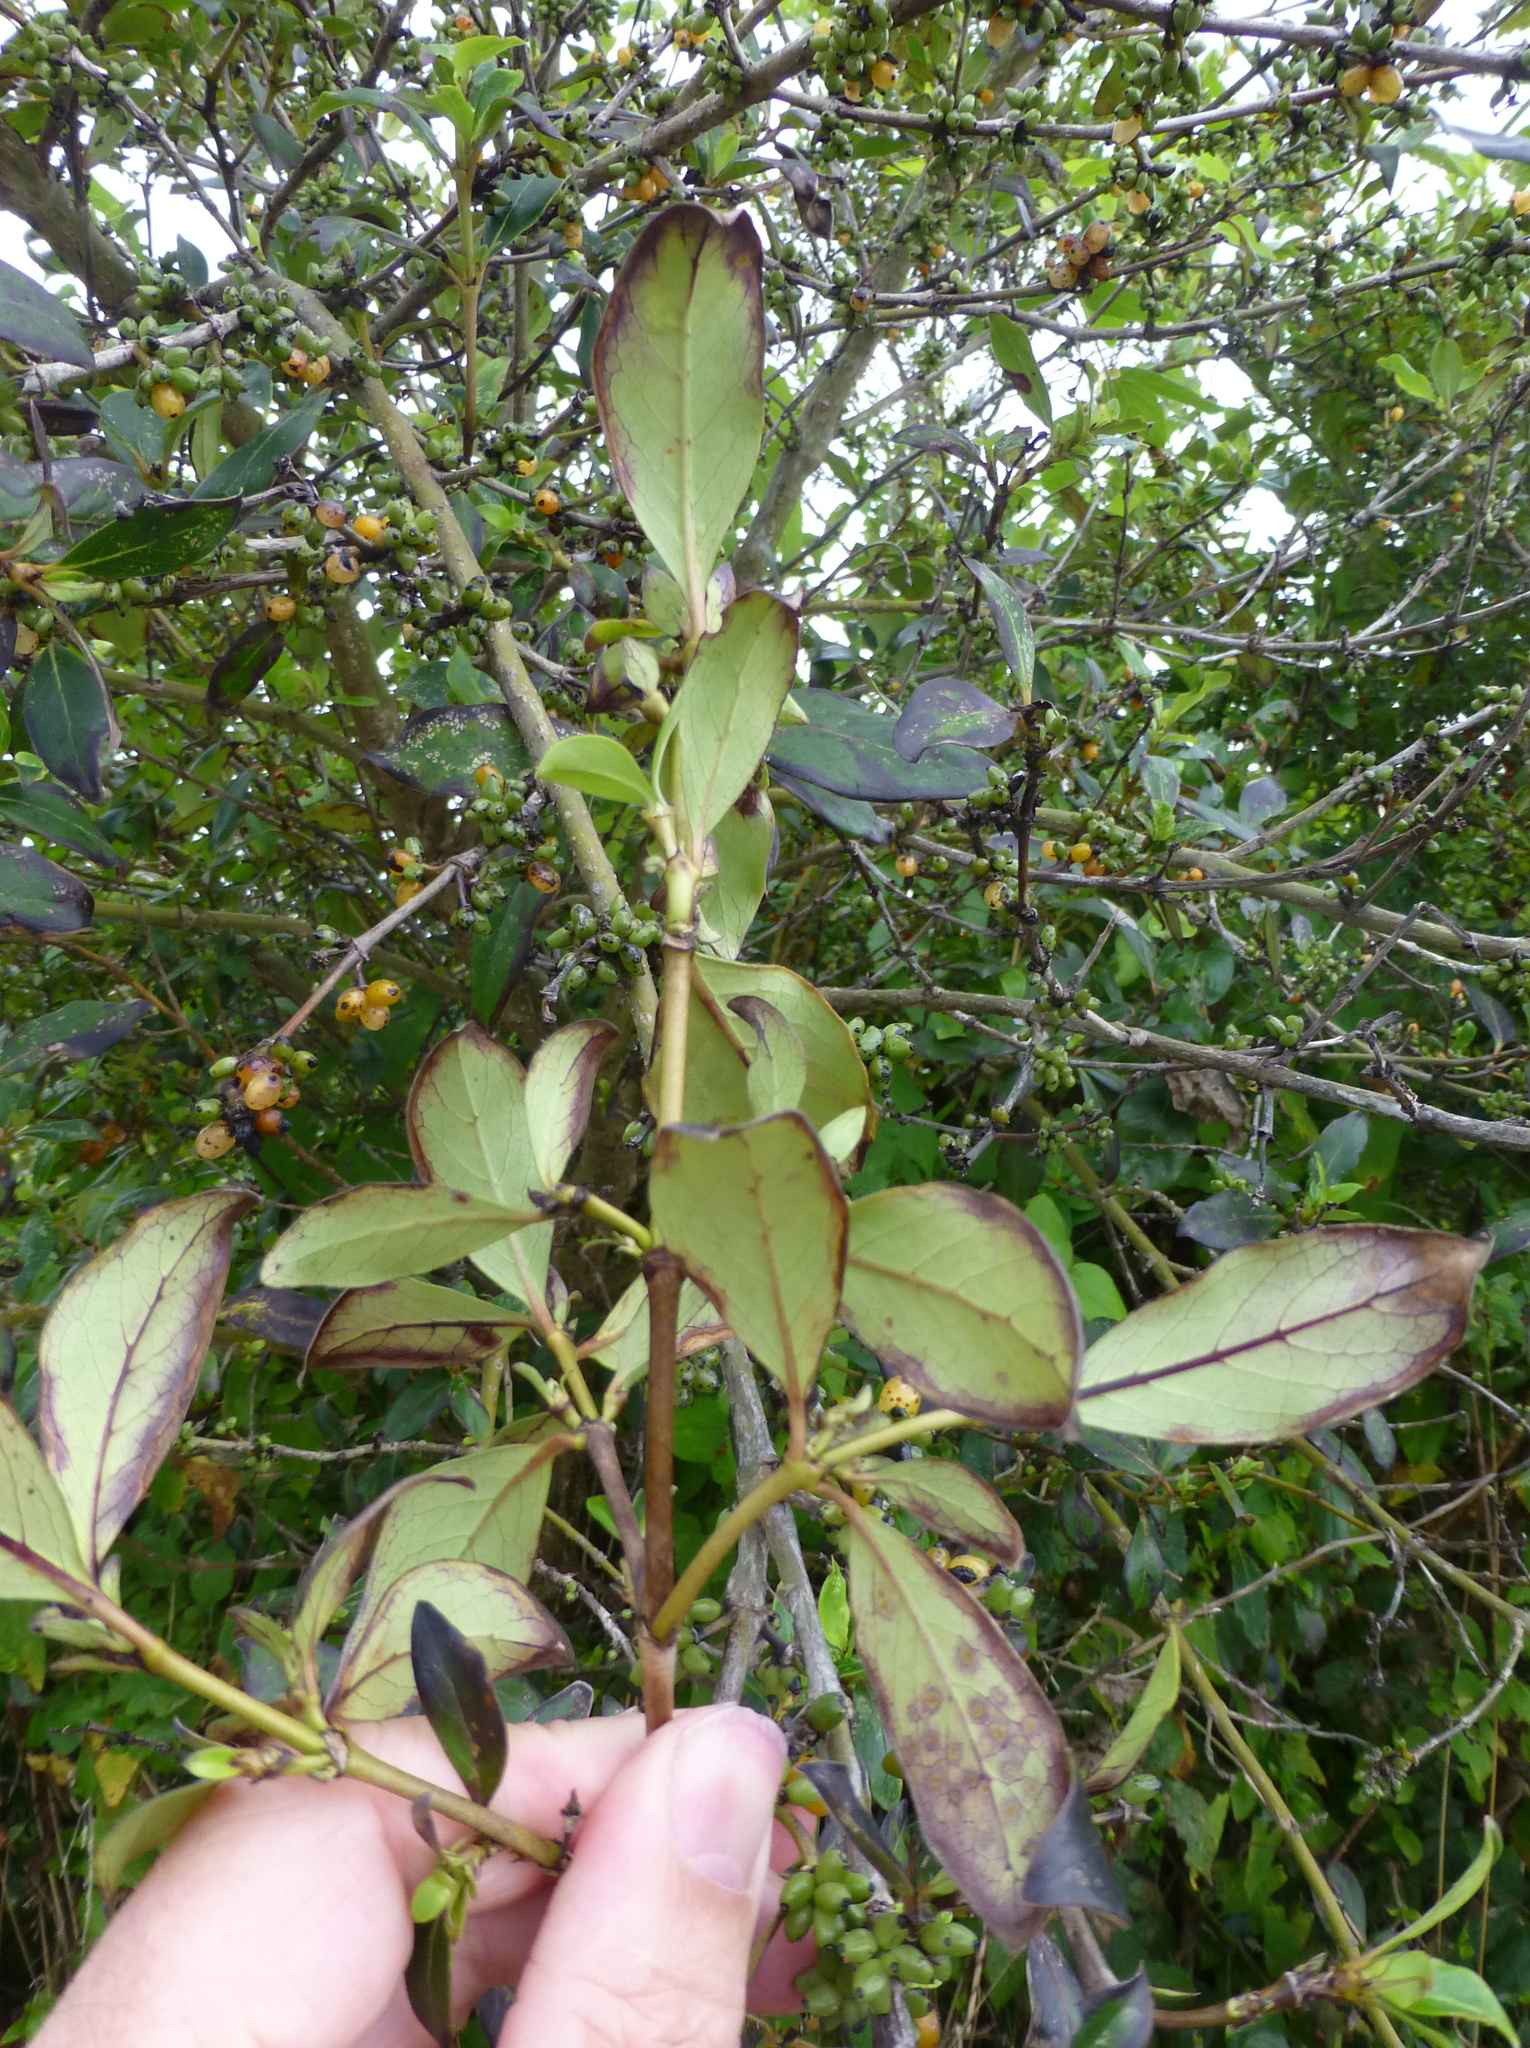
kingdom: Plantae
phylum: Tracheophyta
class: Magnoliopsida
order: Gentianales
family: Rubiaceae
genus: Coprosma
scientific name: Coprosma robusta
